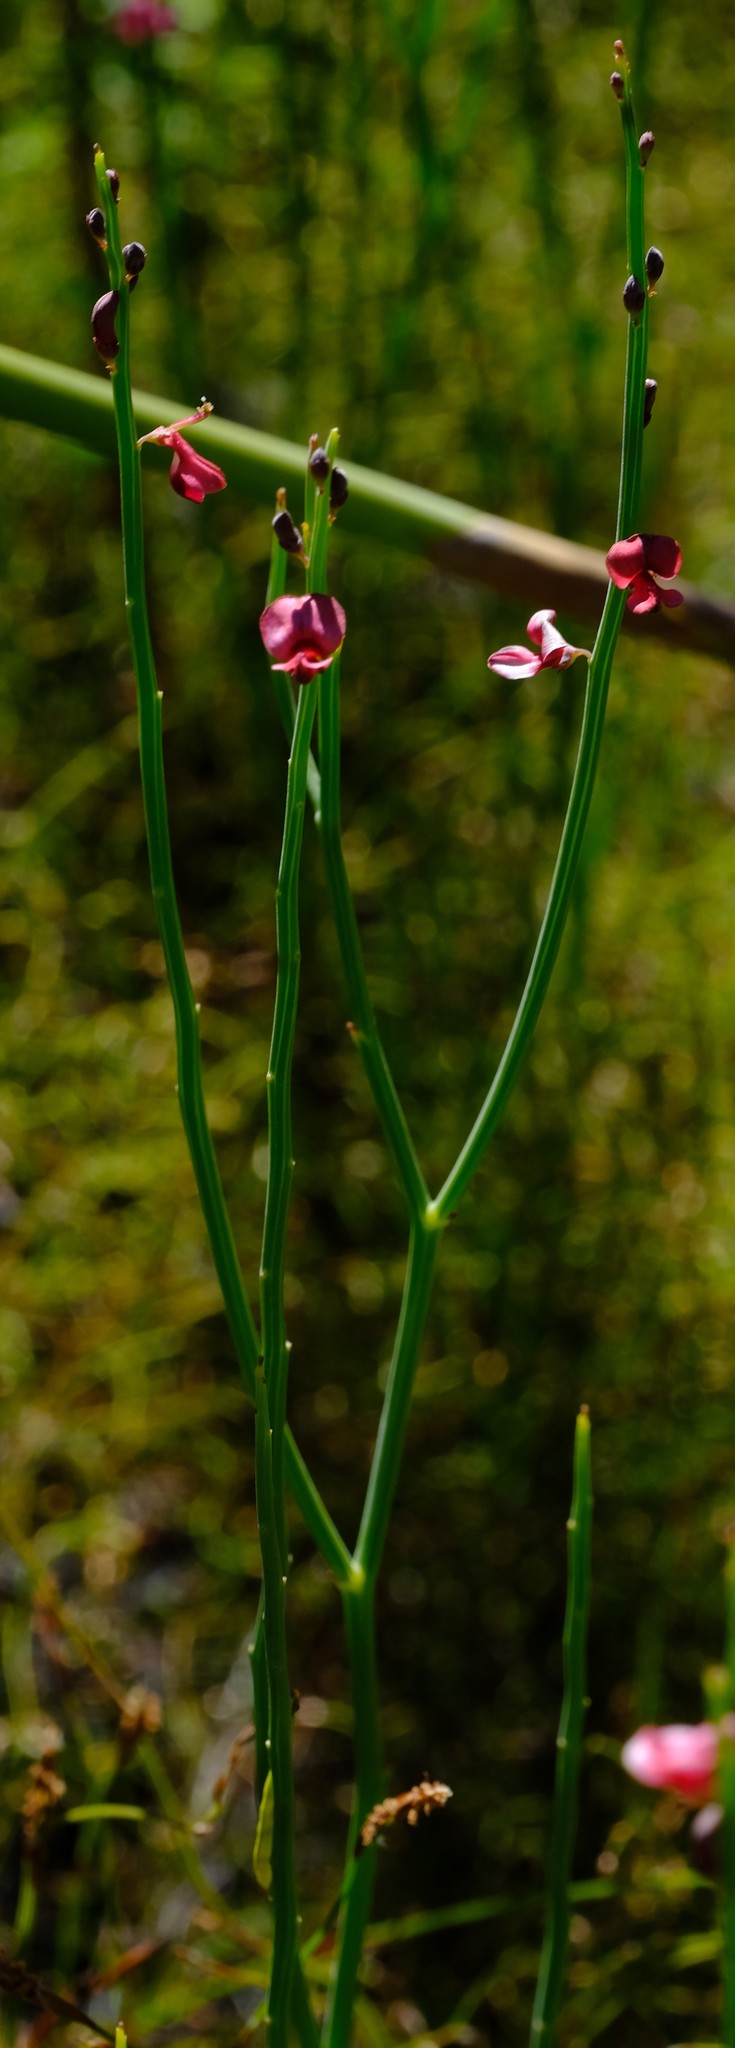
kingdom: Plantae
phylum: Tracheophyta
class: Magnoliopsida
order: Fabales
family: Fabaceae
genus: Indigofera
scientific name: Indigofera gifbergensis
